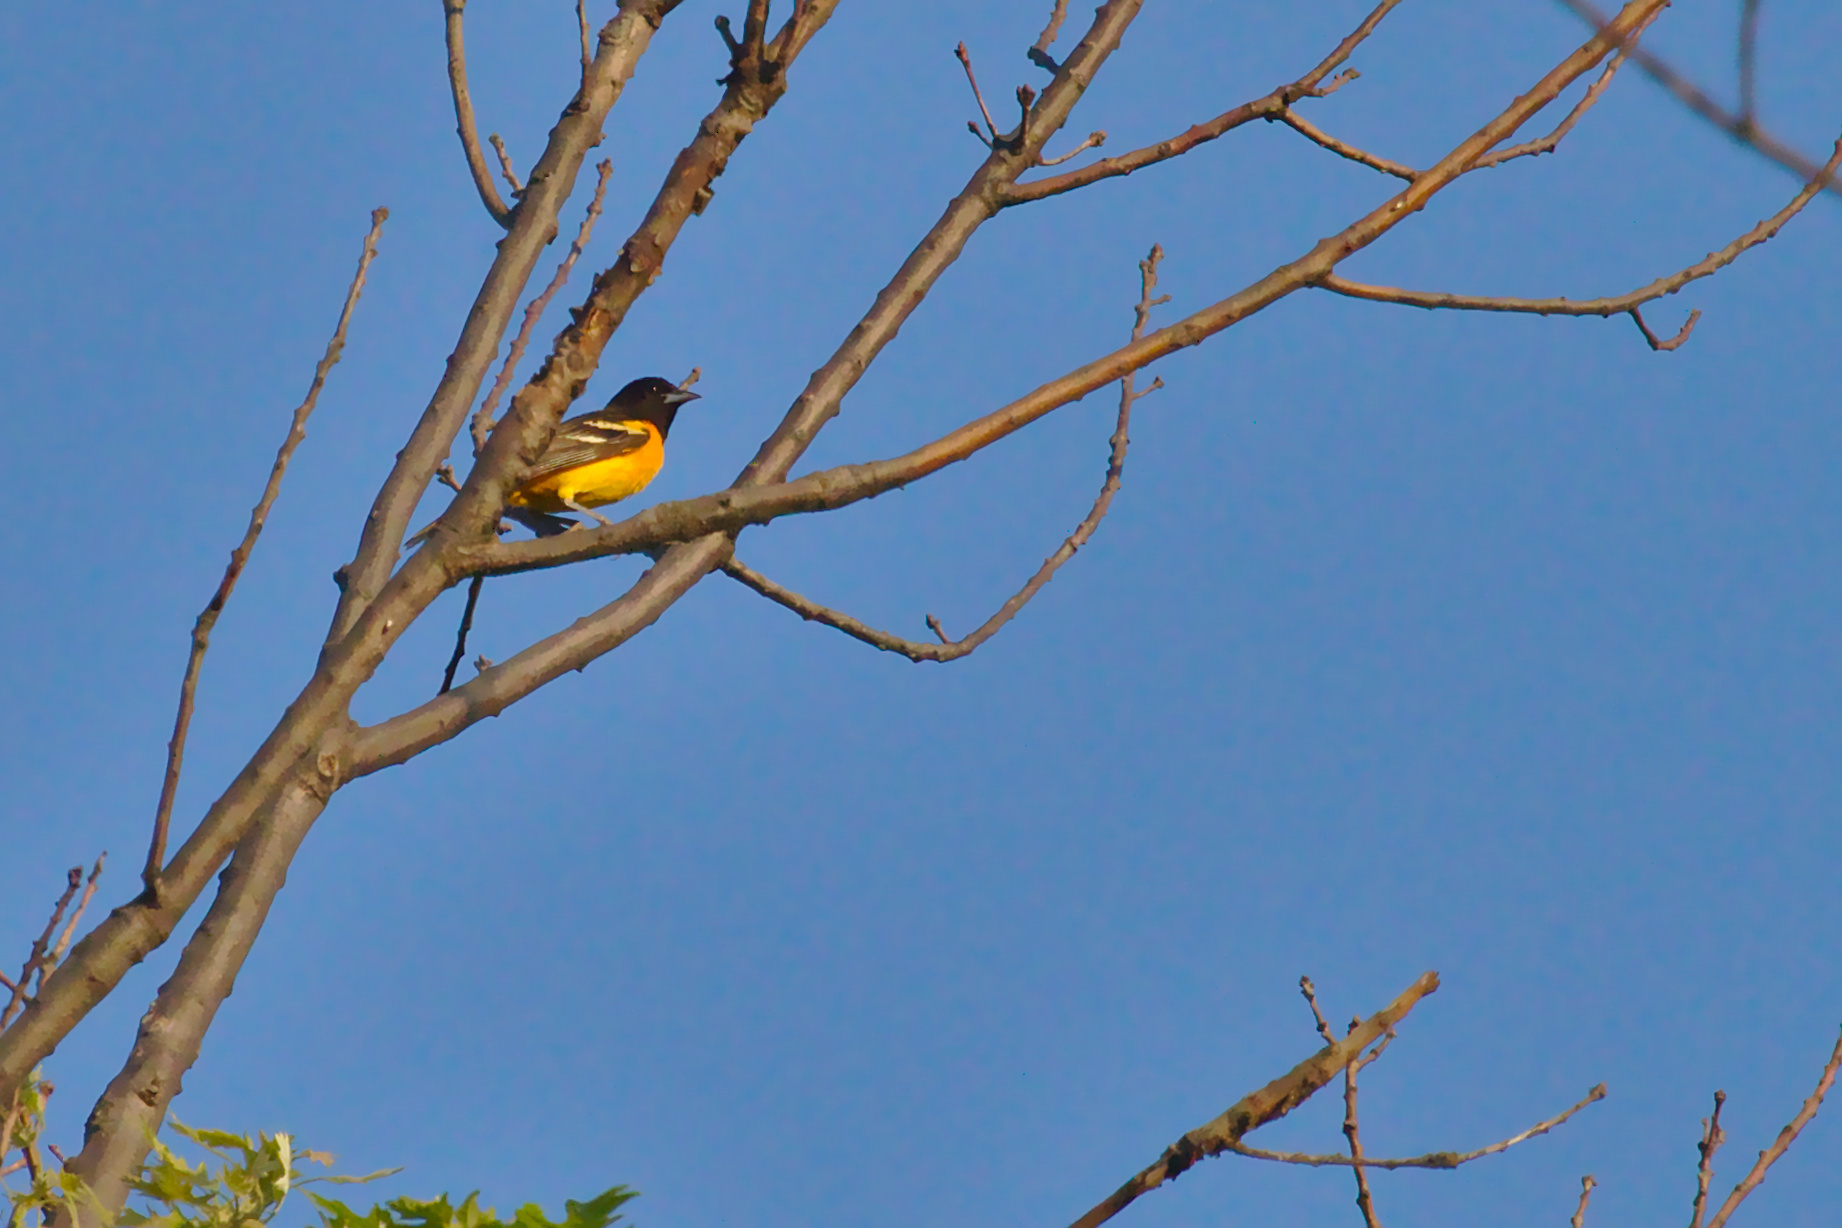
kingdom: Animalia
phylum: Chordata
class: Aves
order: Passeriformes
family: Icteridae
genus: Icterus
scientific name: Icterus galbula
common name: Baltimore oriole
